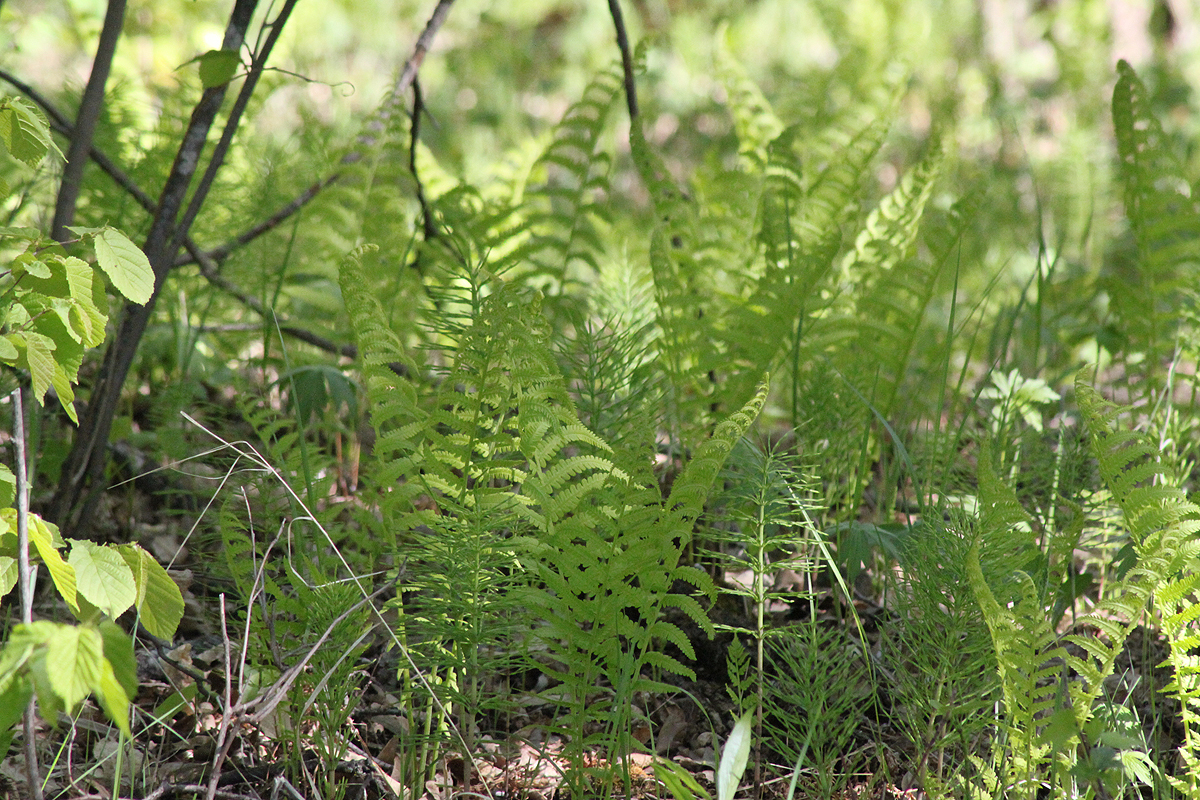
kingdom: Plantae
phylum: Tracheophyta
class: Polypodiopsida
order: Polypodiales
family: Onocleaceae
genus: Matteuccia
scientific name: Matteuccia struthiopteris
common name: Ostrich fern
